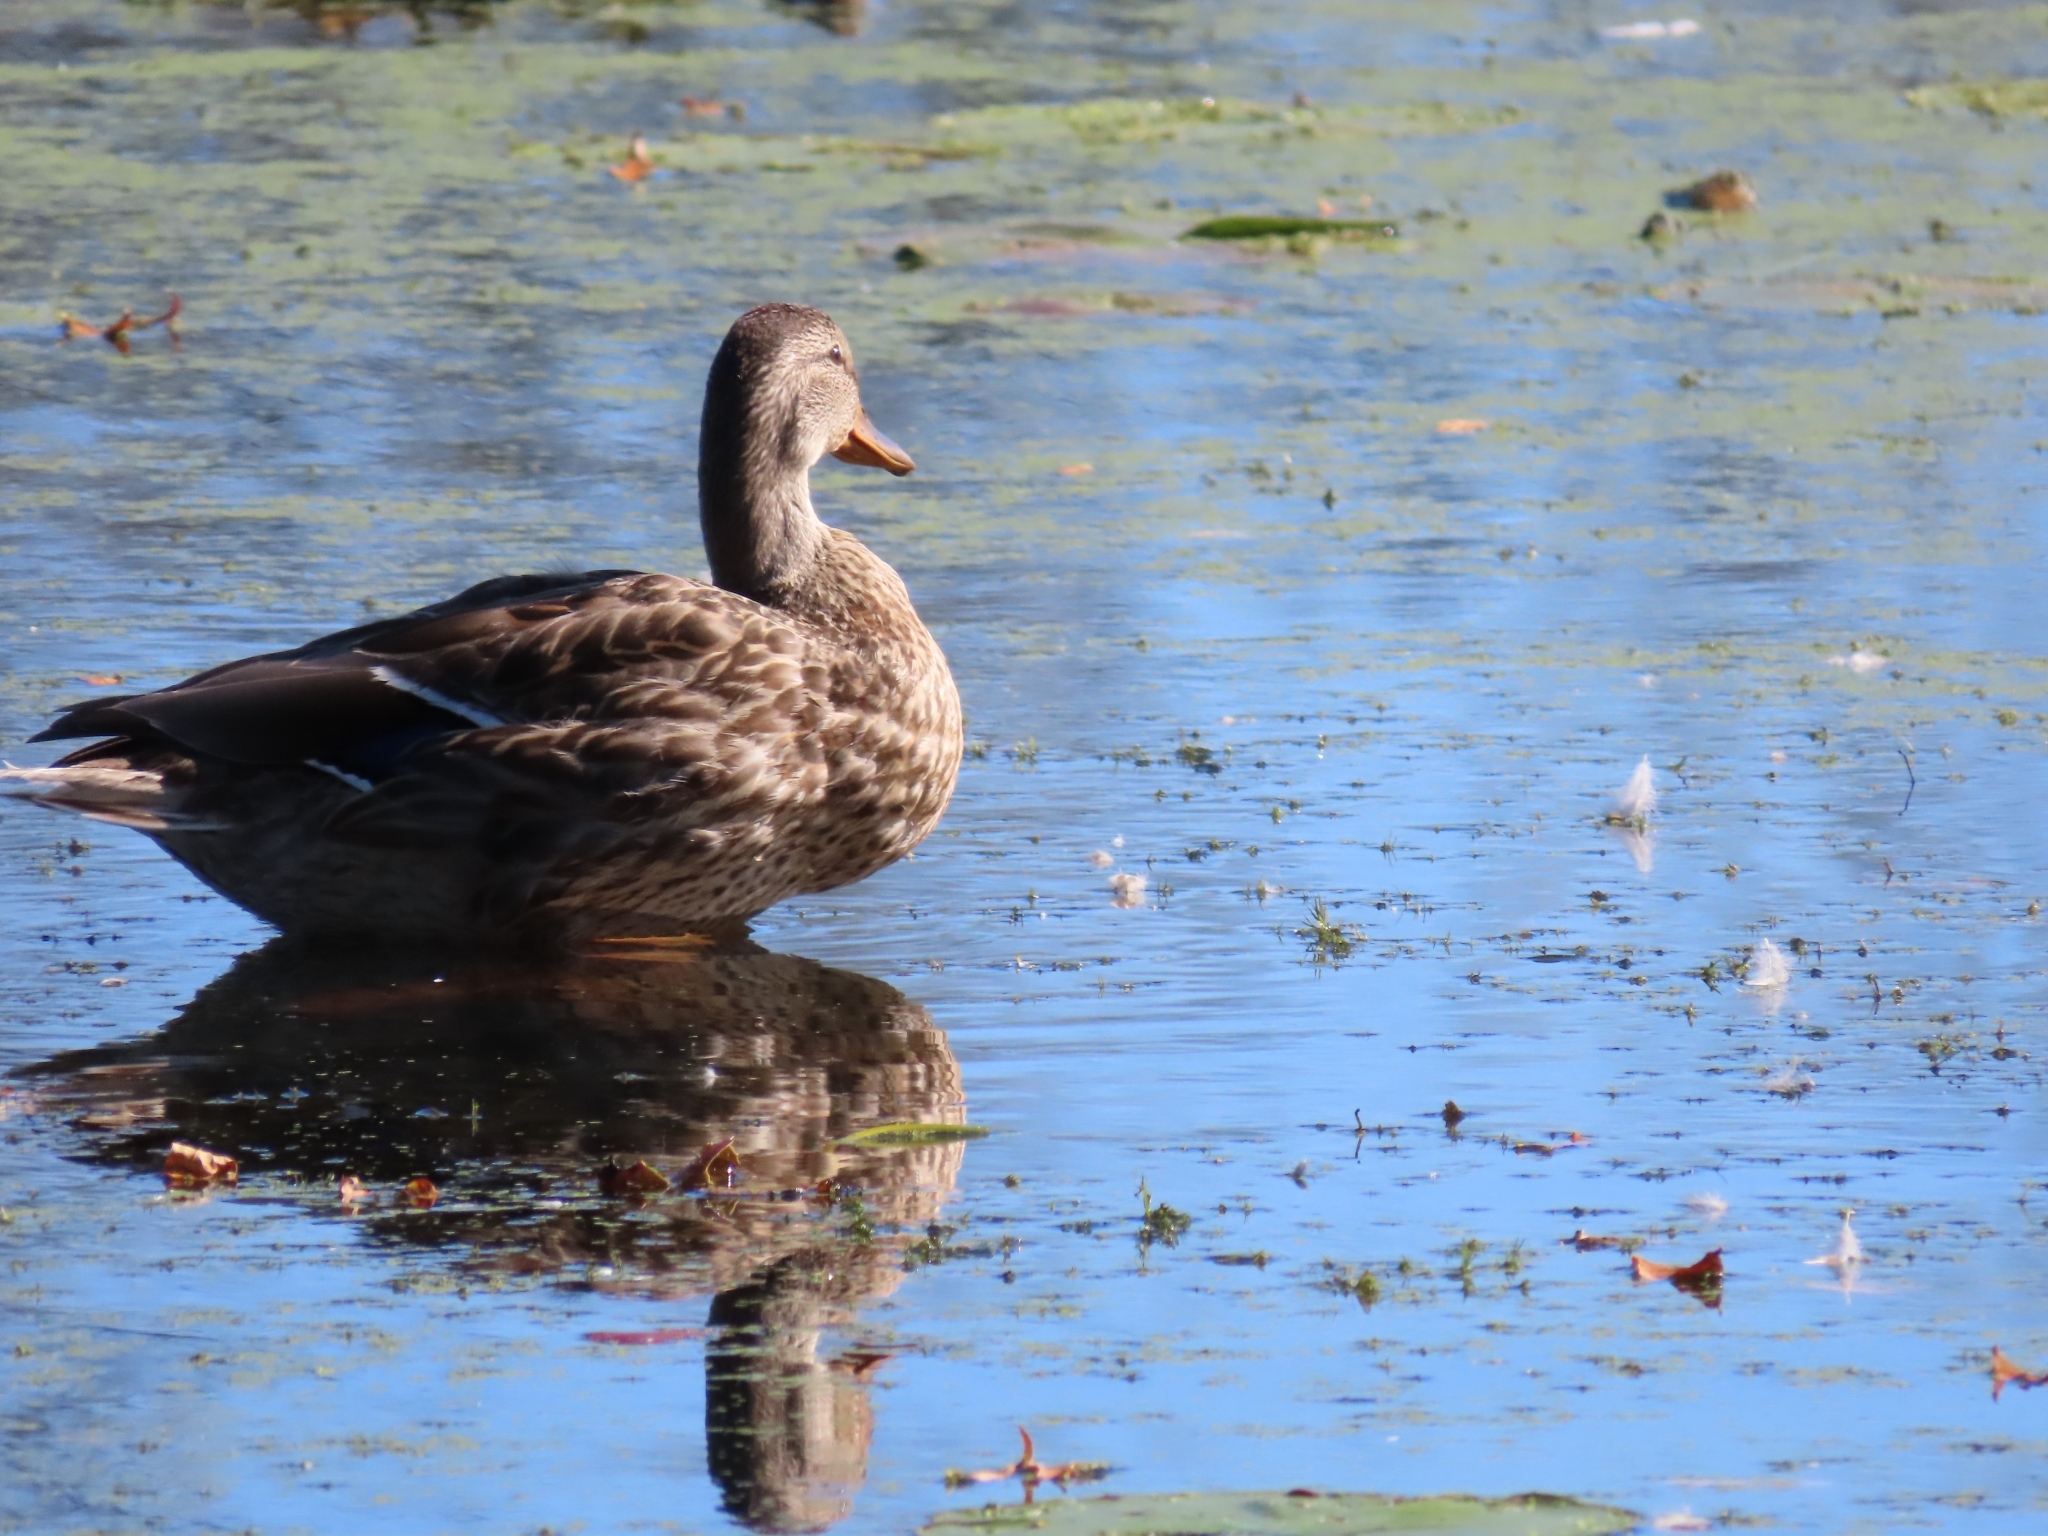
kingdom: Animalia
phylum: Chordata
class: Aves
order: Anseriformes
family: Anatidae
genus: Anas
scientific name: Anas platyrhynchos
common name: Mallard
